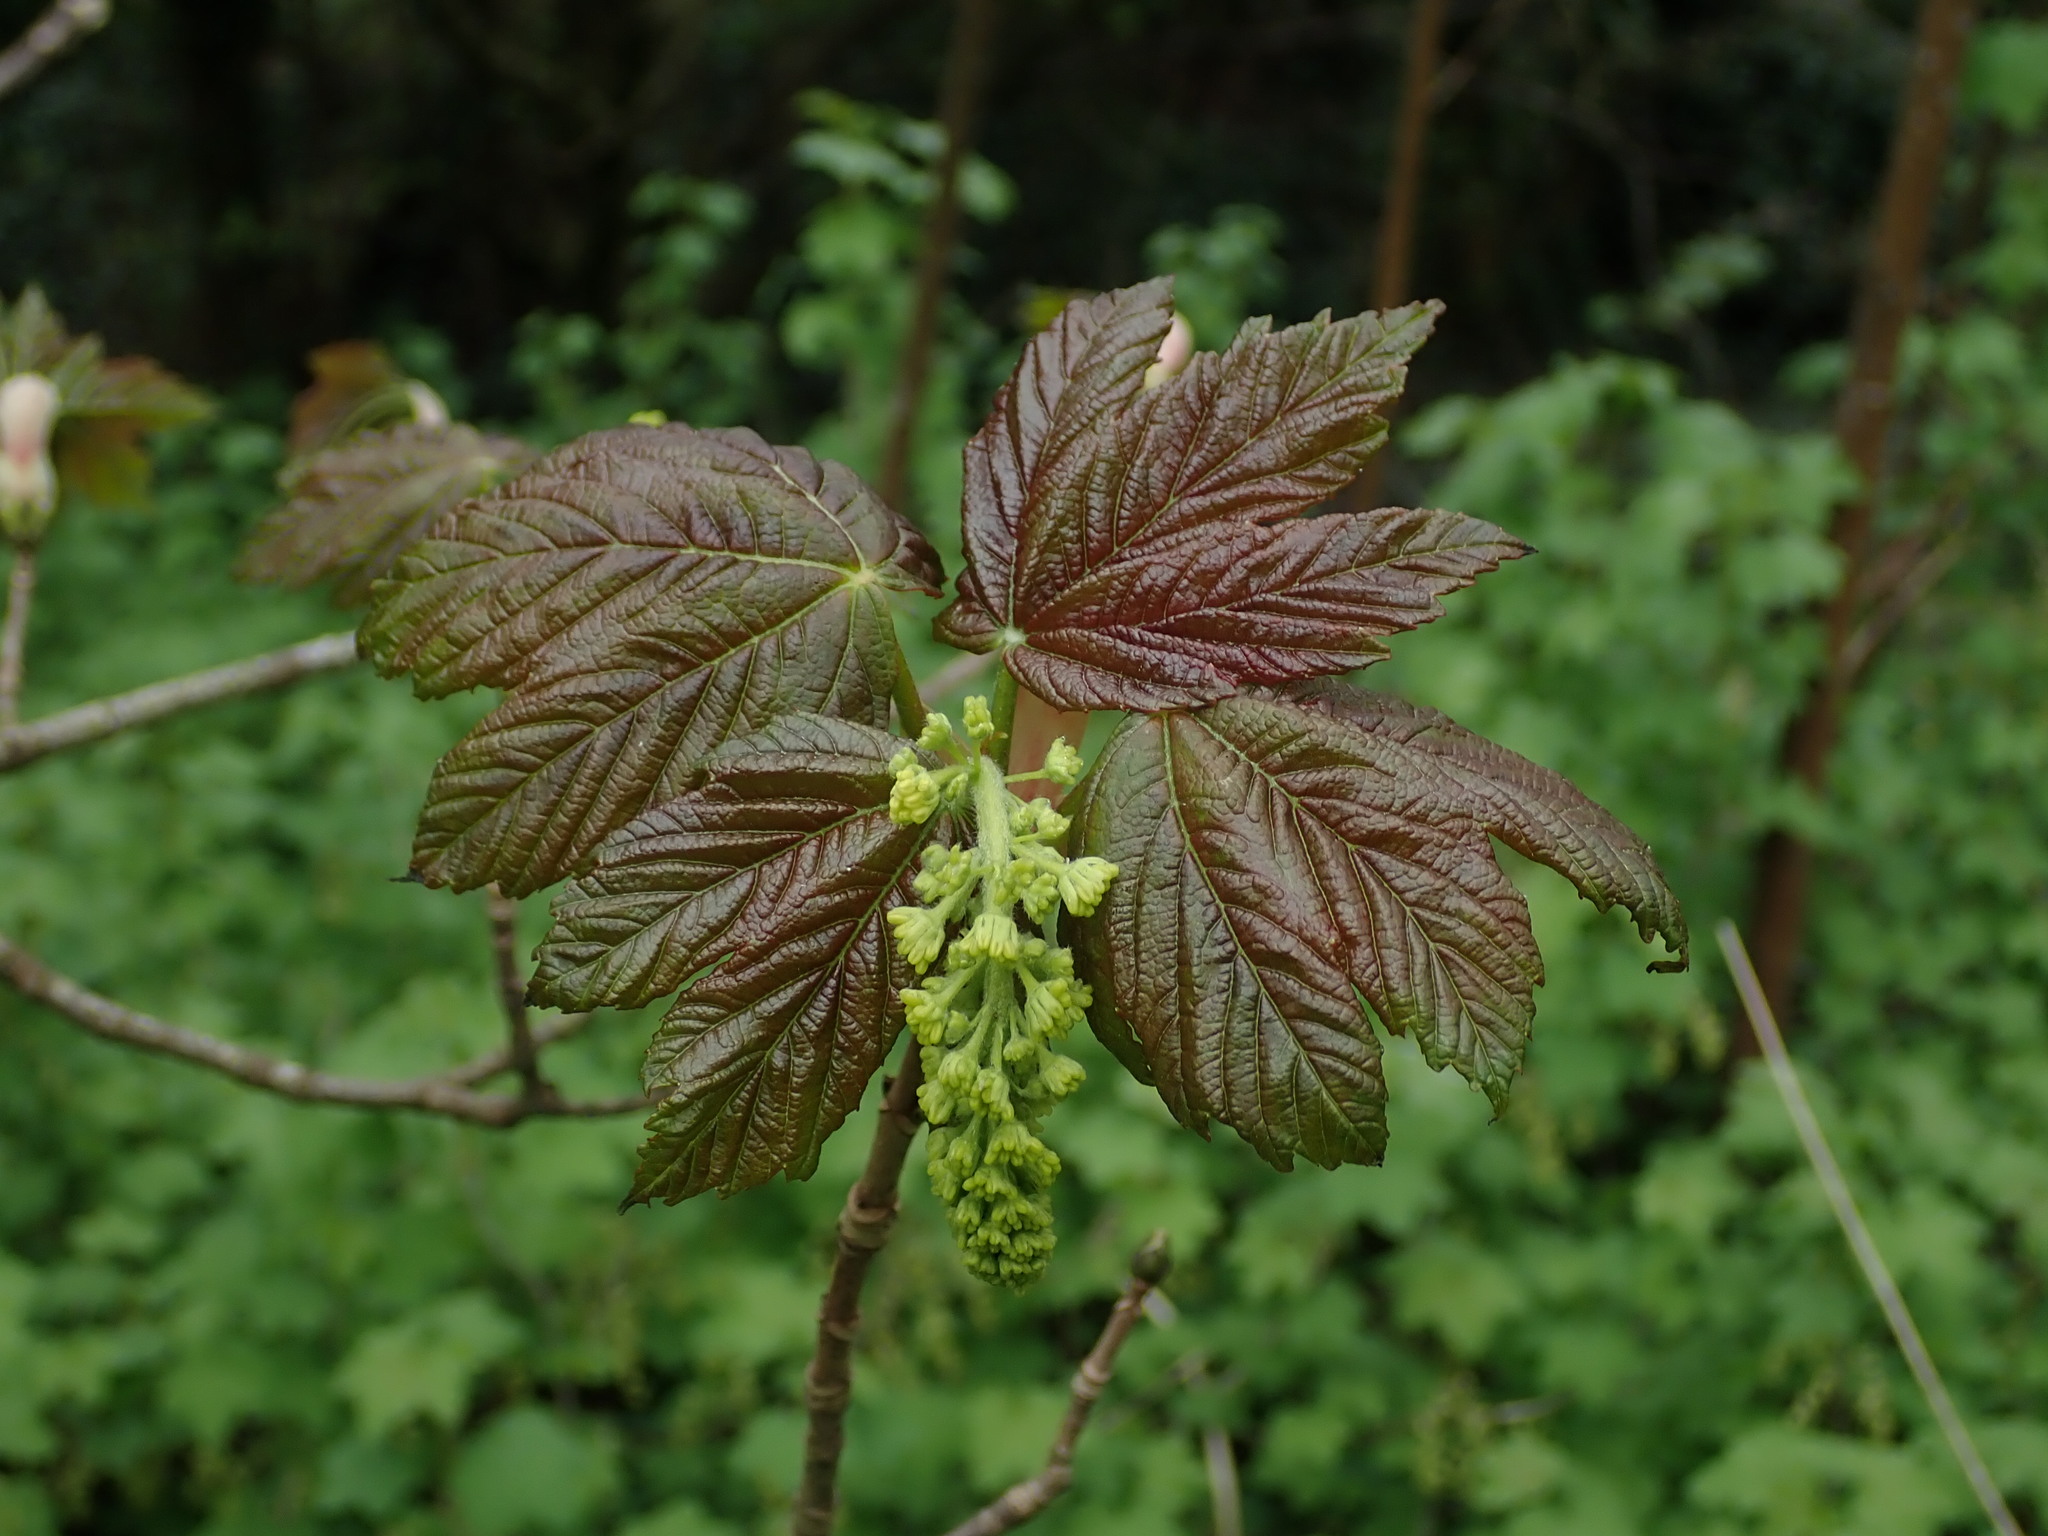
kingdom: Plantae
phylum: Tracheophyta
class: Magnoliopsida
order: Sapindales
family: Sapindaceae
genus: Acer
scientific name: Acer pseudoplatanus
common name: Sycamore
